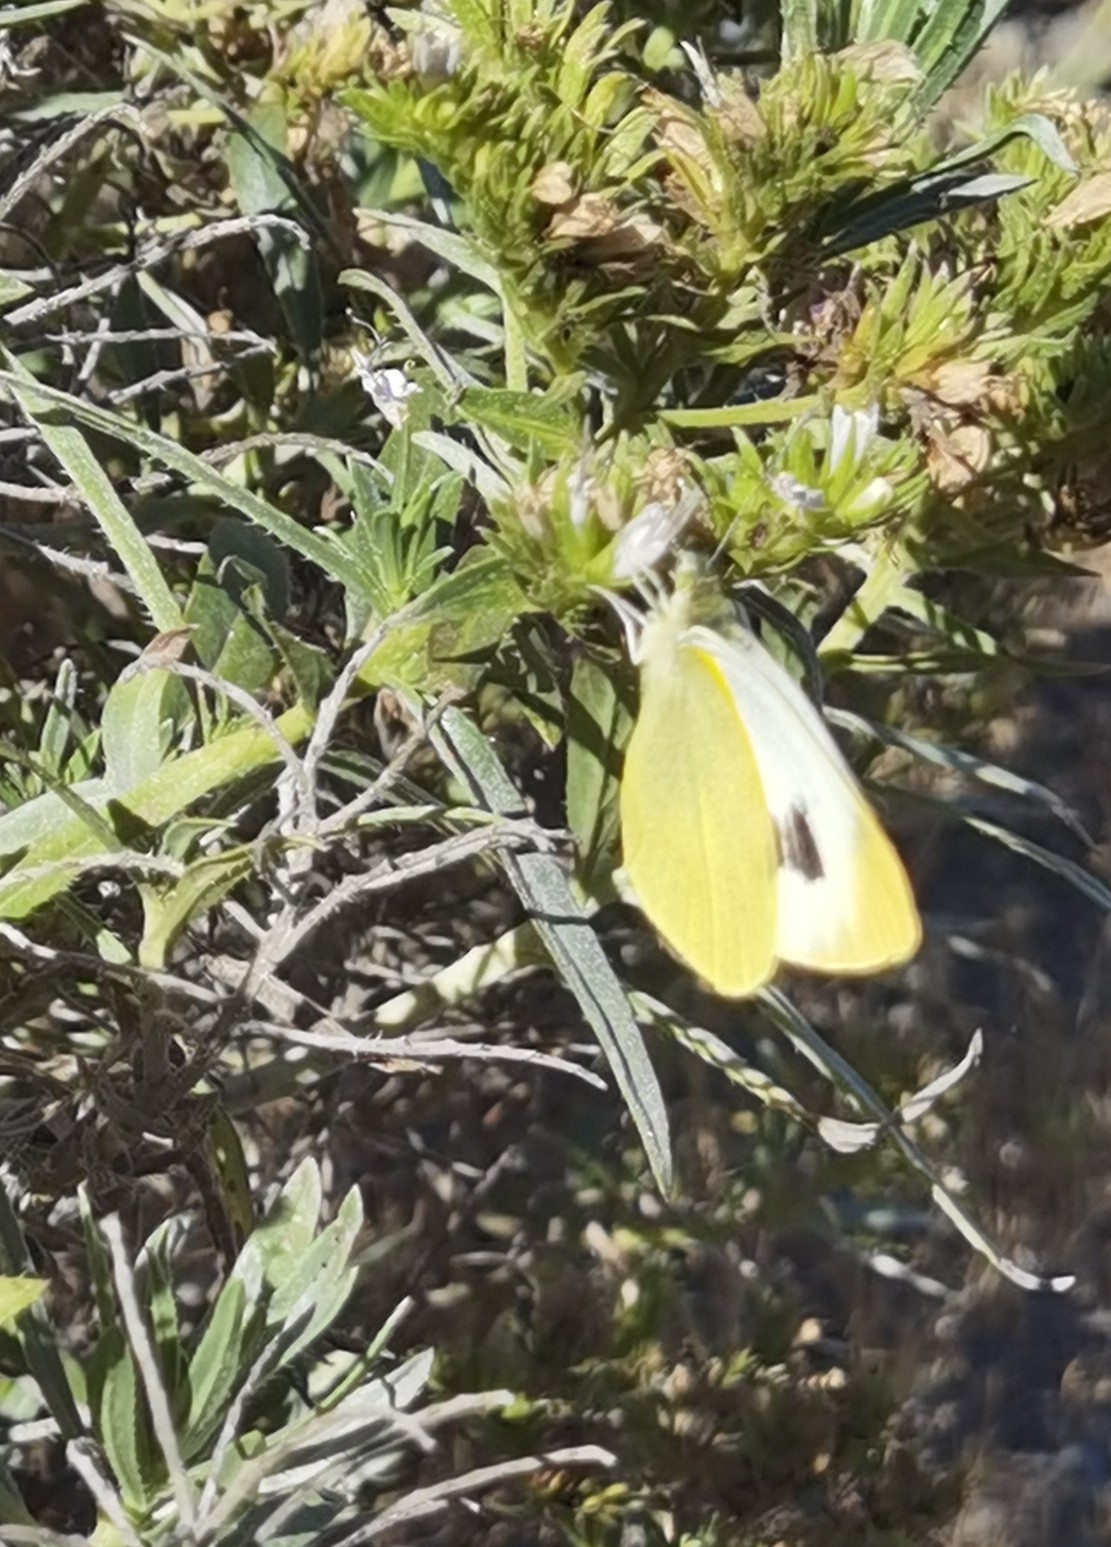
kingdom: Animalia
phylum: Arthropoda
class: Insecta
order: Lepidoptera
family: Pieridae
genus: Pieris
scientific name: Pieris cheiranthi
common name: Canary islands large white
